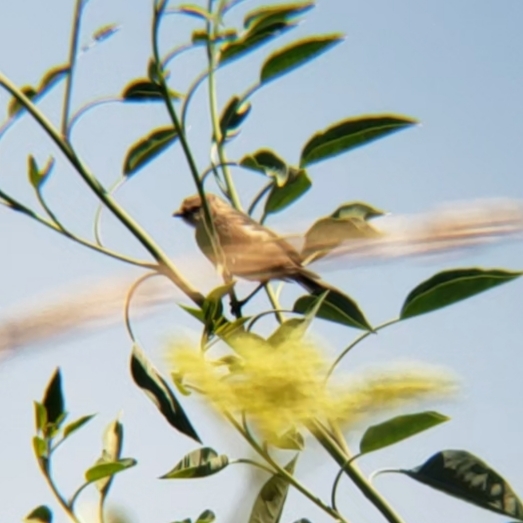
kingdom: Animalia
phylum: Chordata
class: Aves
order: Passeriformes
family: Aegithalidae
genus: Psaltriparus
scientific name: Psaltriparus minimus
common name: American bushtit
